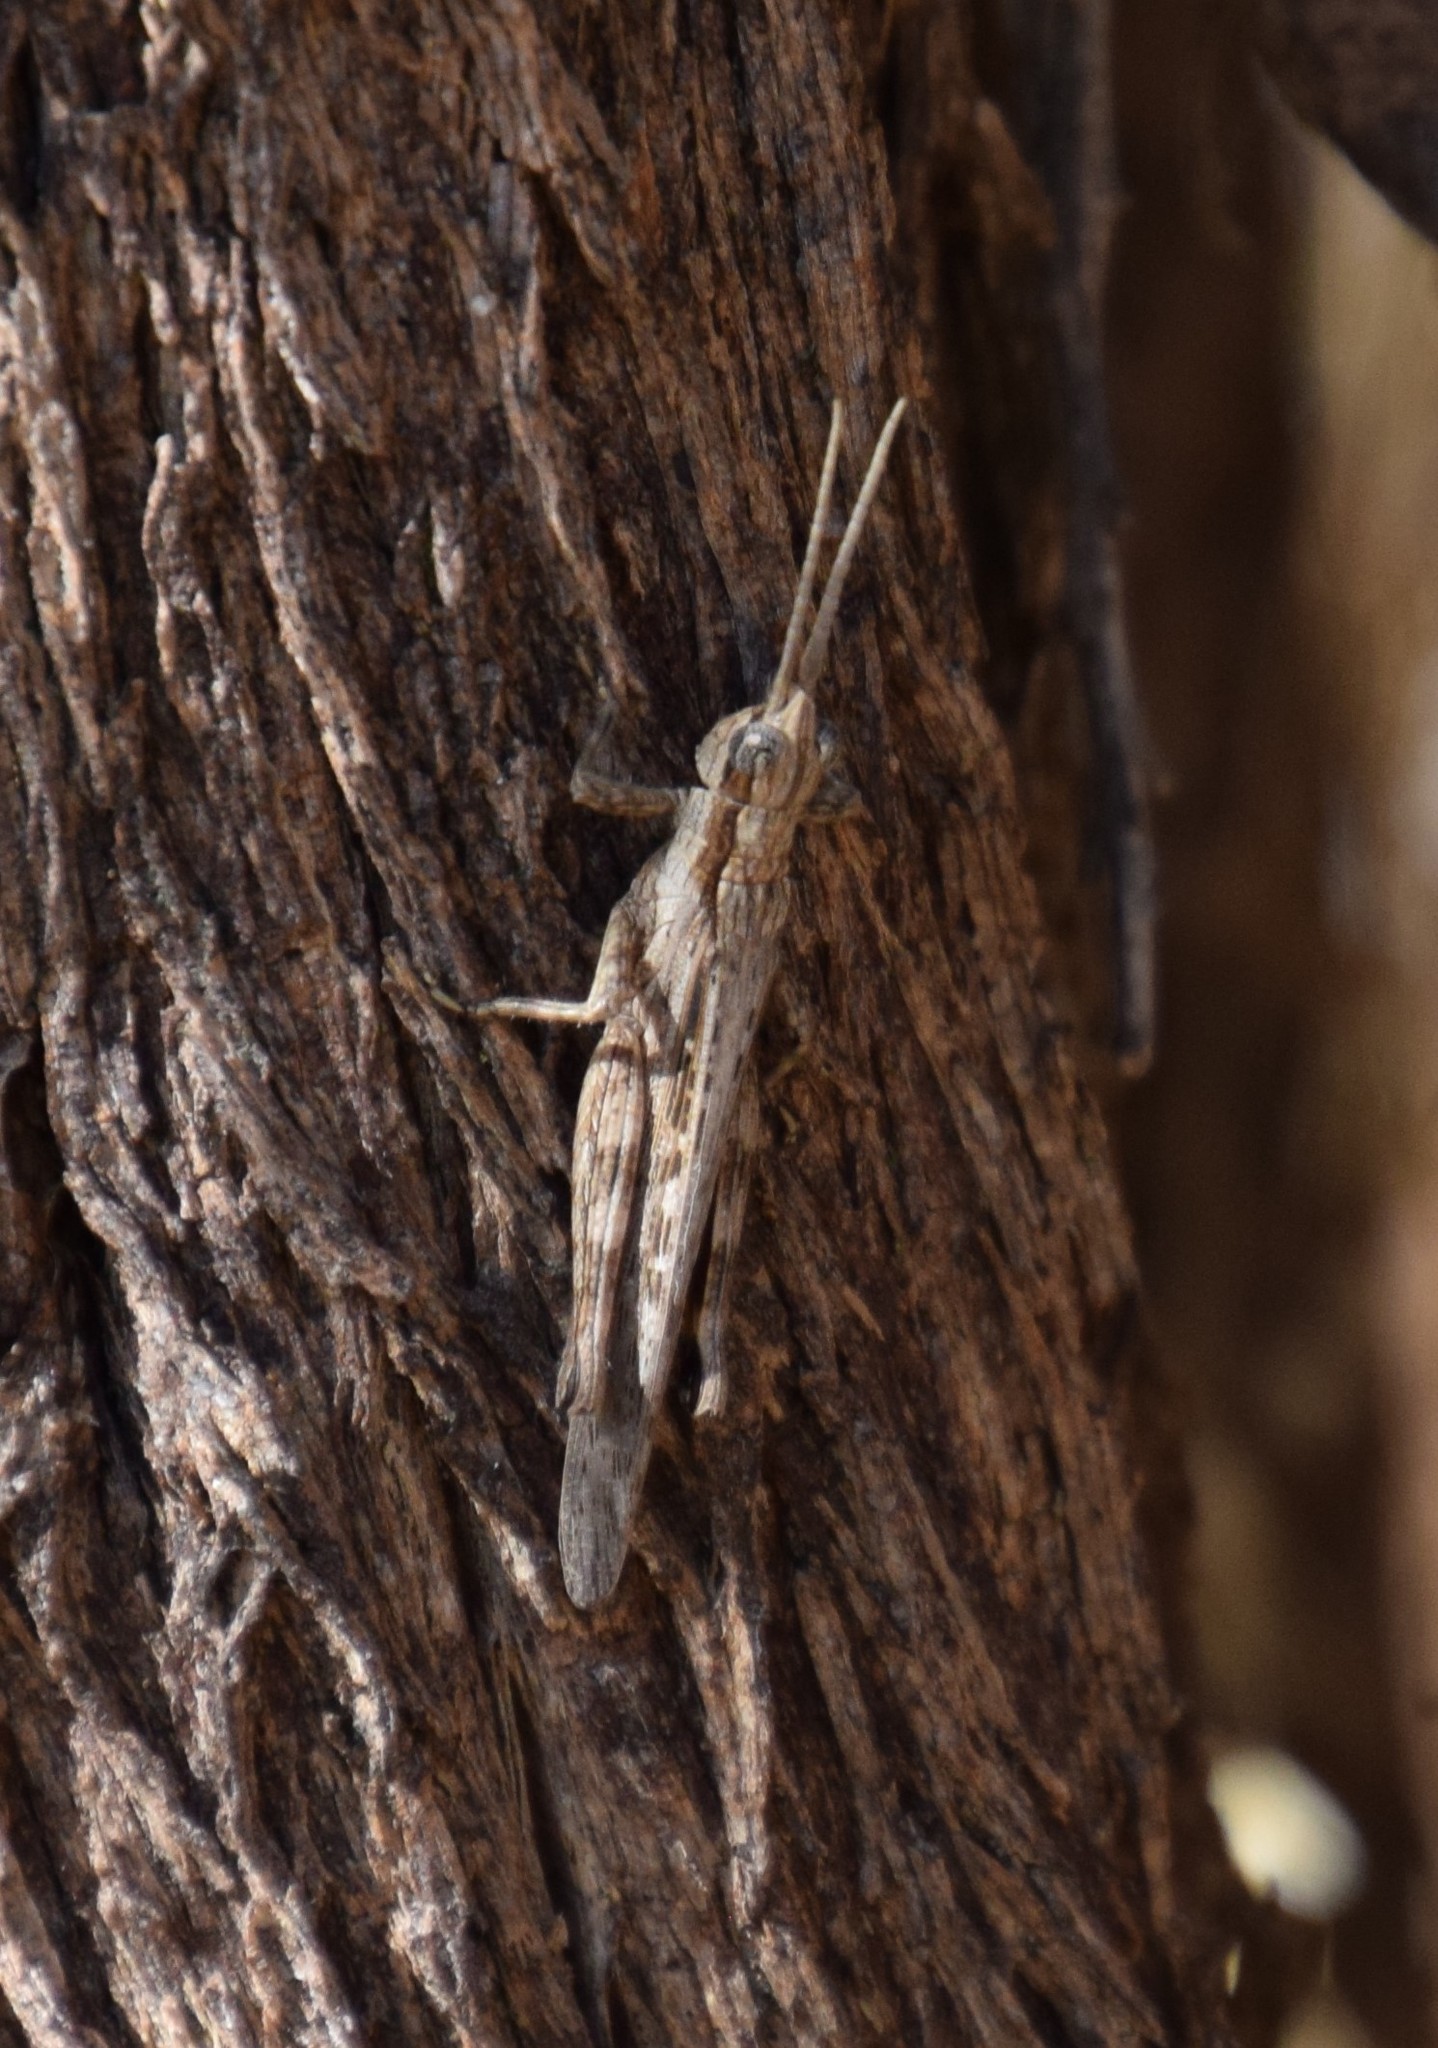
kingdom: Animalia
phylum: Arthropoda
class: Insecta
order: Orthoptera
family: Acrididae
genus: Coryphistes
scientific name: Coryphistes ruricola
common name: Bark-mimicking grasshopper
